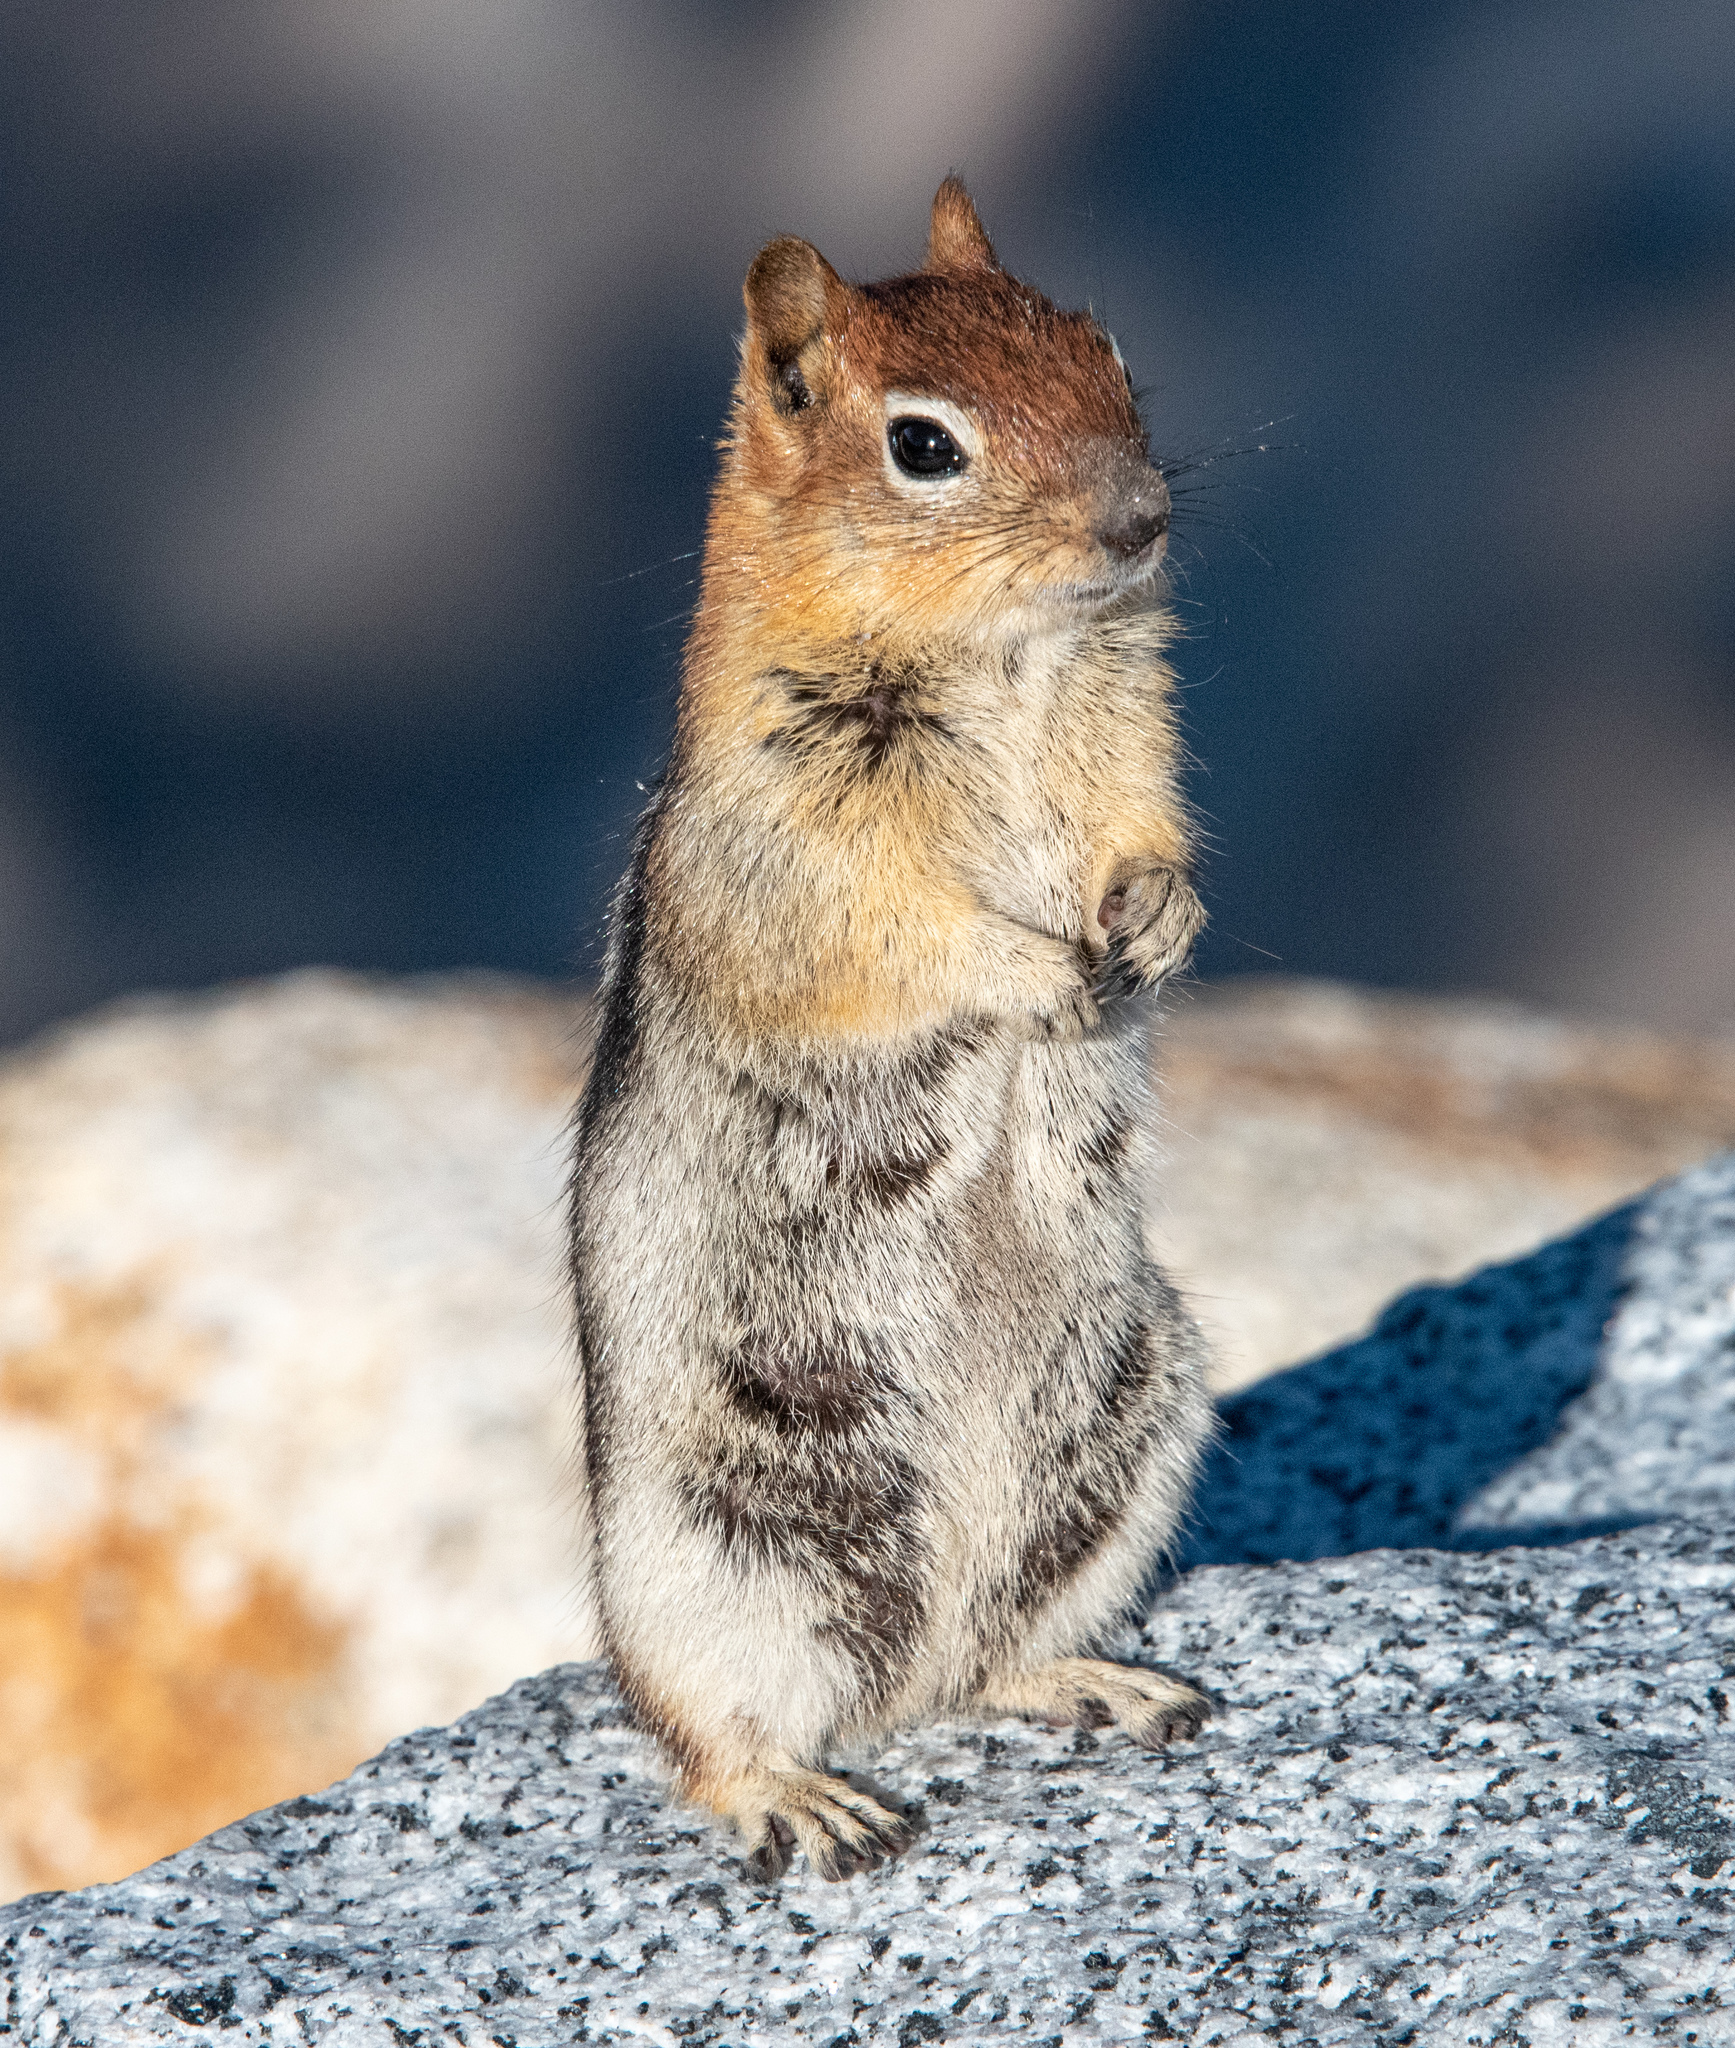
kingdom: Animalia
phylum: Chordata
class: Mammalia
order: Rodentia
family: Sciuridae
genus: Callospermophilus
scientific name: Callospermophilus lateralis
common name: Golden-mantled ground squirrel
